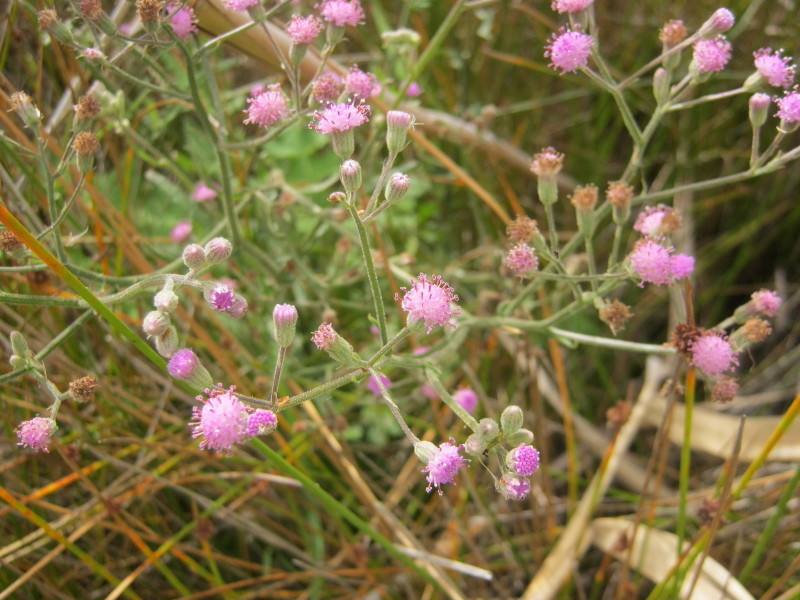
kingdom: Plantae
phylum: Tracheophyta
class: Magnoliopsida
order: Asterales
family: Asteraceae
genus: Senecio
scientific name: Senecio erubescens
